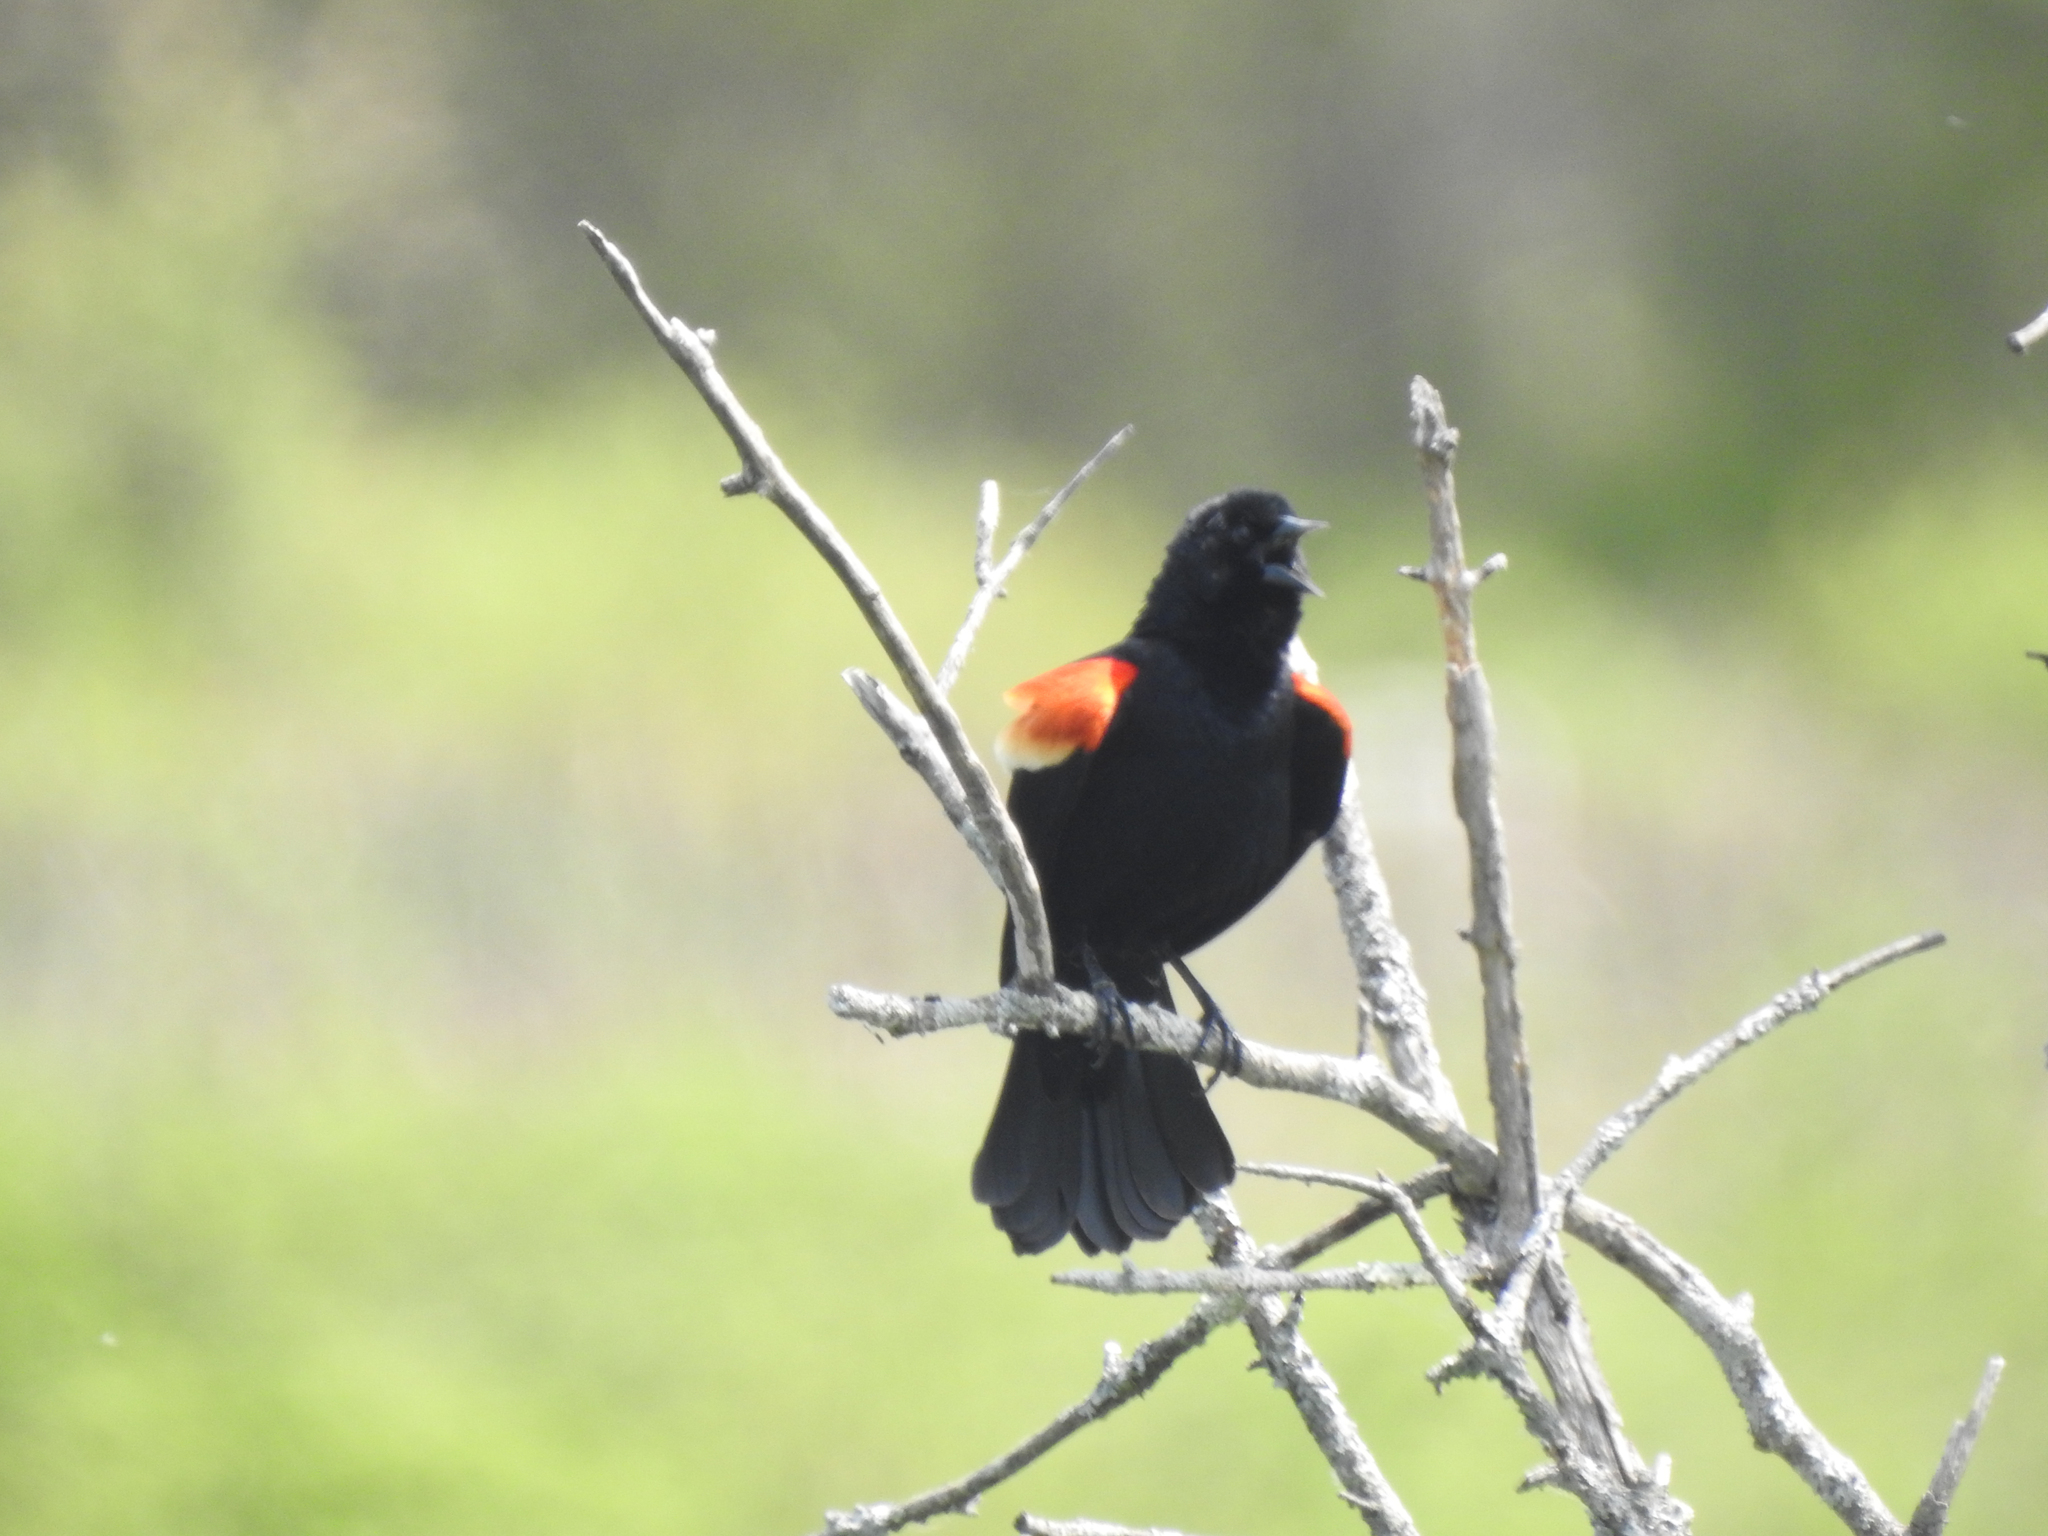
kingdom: Animalia
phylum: Chordata
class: Aves
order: Passeriformes
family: Icteridae
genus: Agelaius
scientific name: Agelaius phoeniceus
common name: Red-winged blackbird
